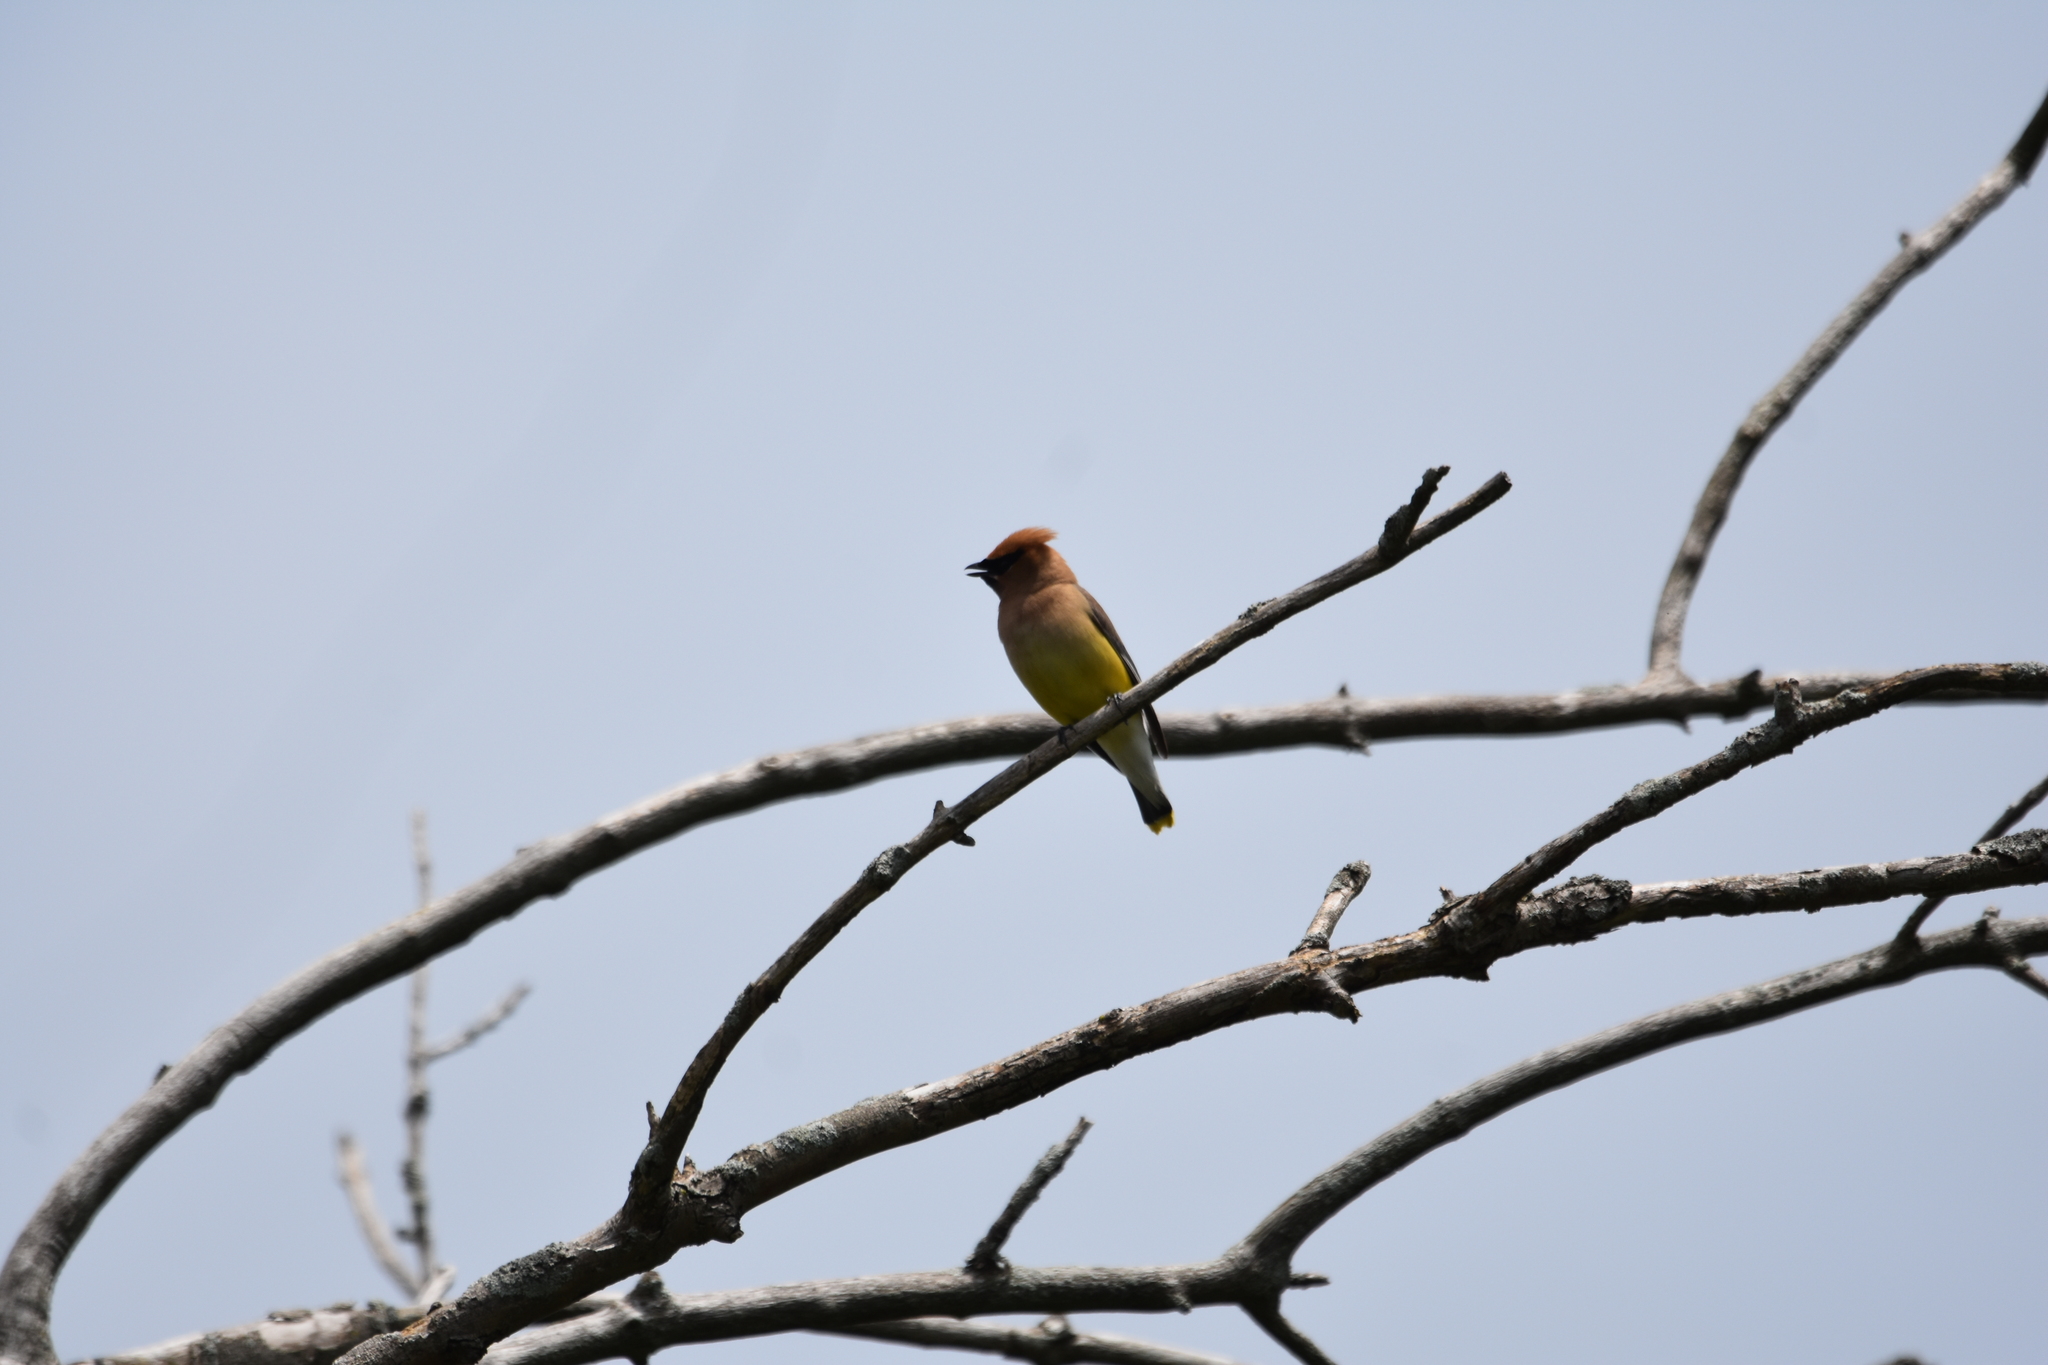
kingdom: Animalia
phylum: Chordata
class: Aves
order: Passeriformes
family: Bombycillidae
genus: Bombycilla
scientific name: Bombycilla cedrorum
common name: Cedar waxwing
